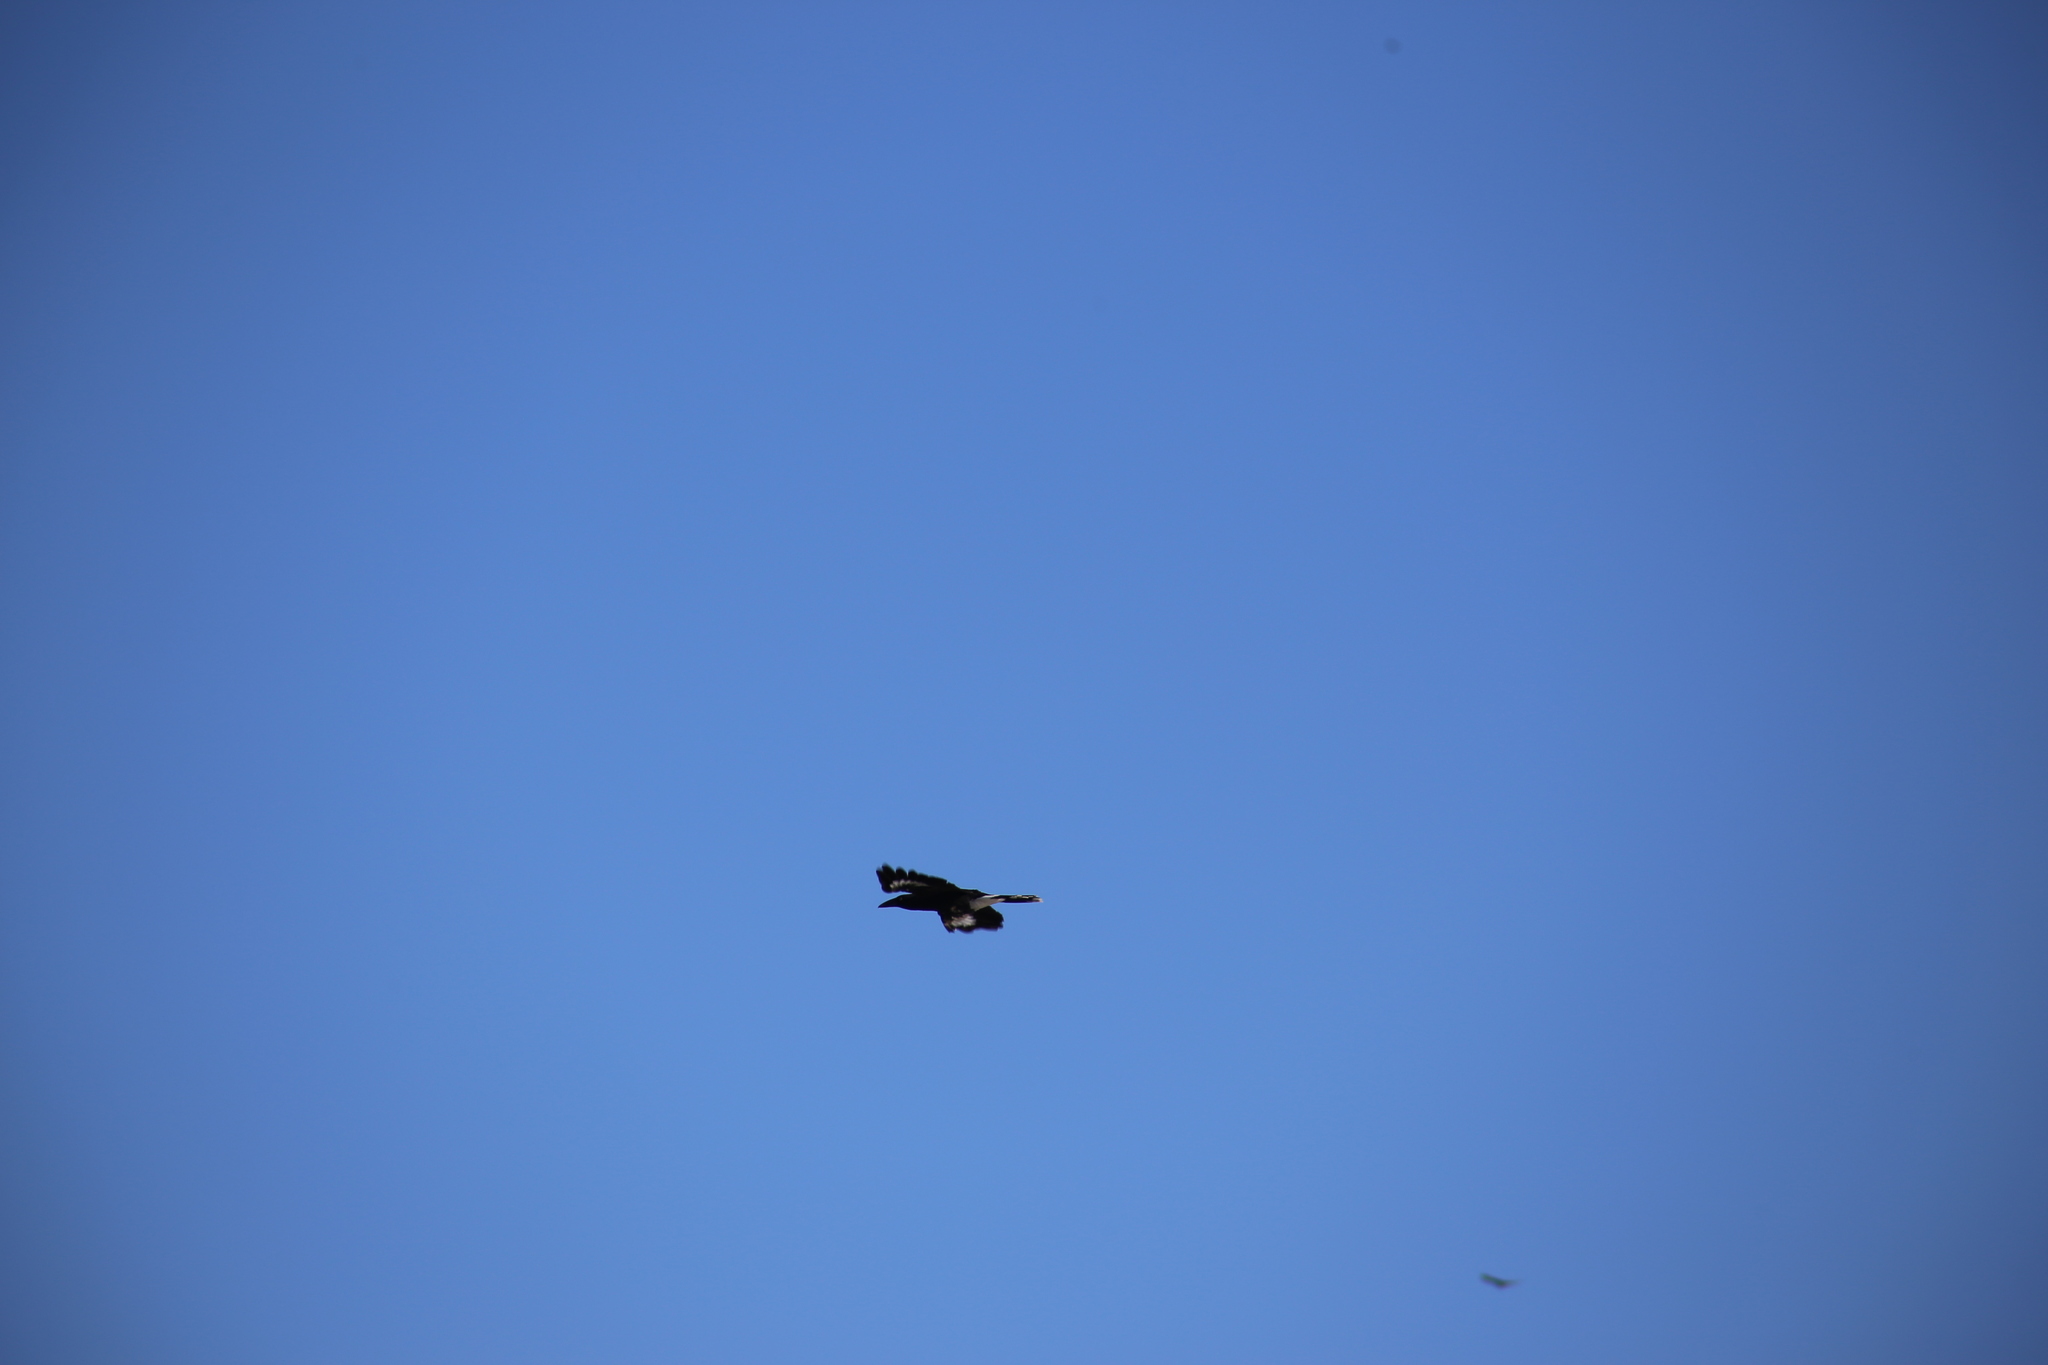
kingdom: Animalia
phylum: Chordata
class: Aves
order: Passeriformes
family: Cracticidae
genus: Strepera
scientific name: Strepera graculina
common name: Pied currawong
